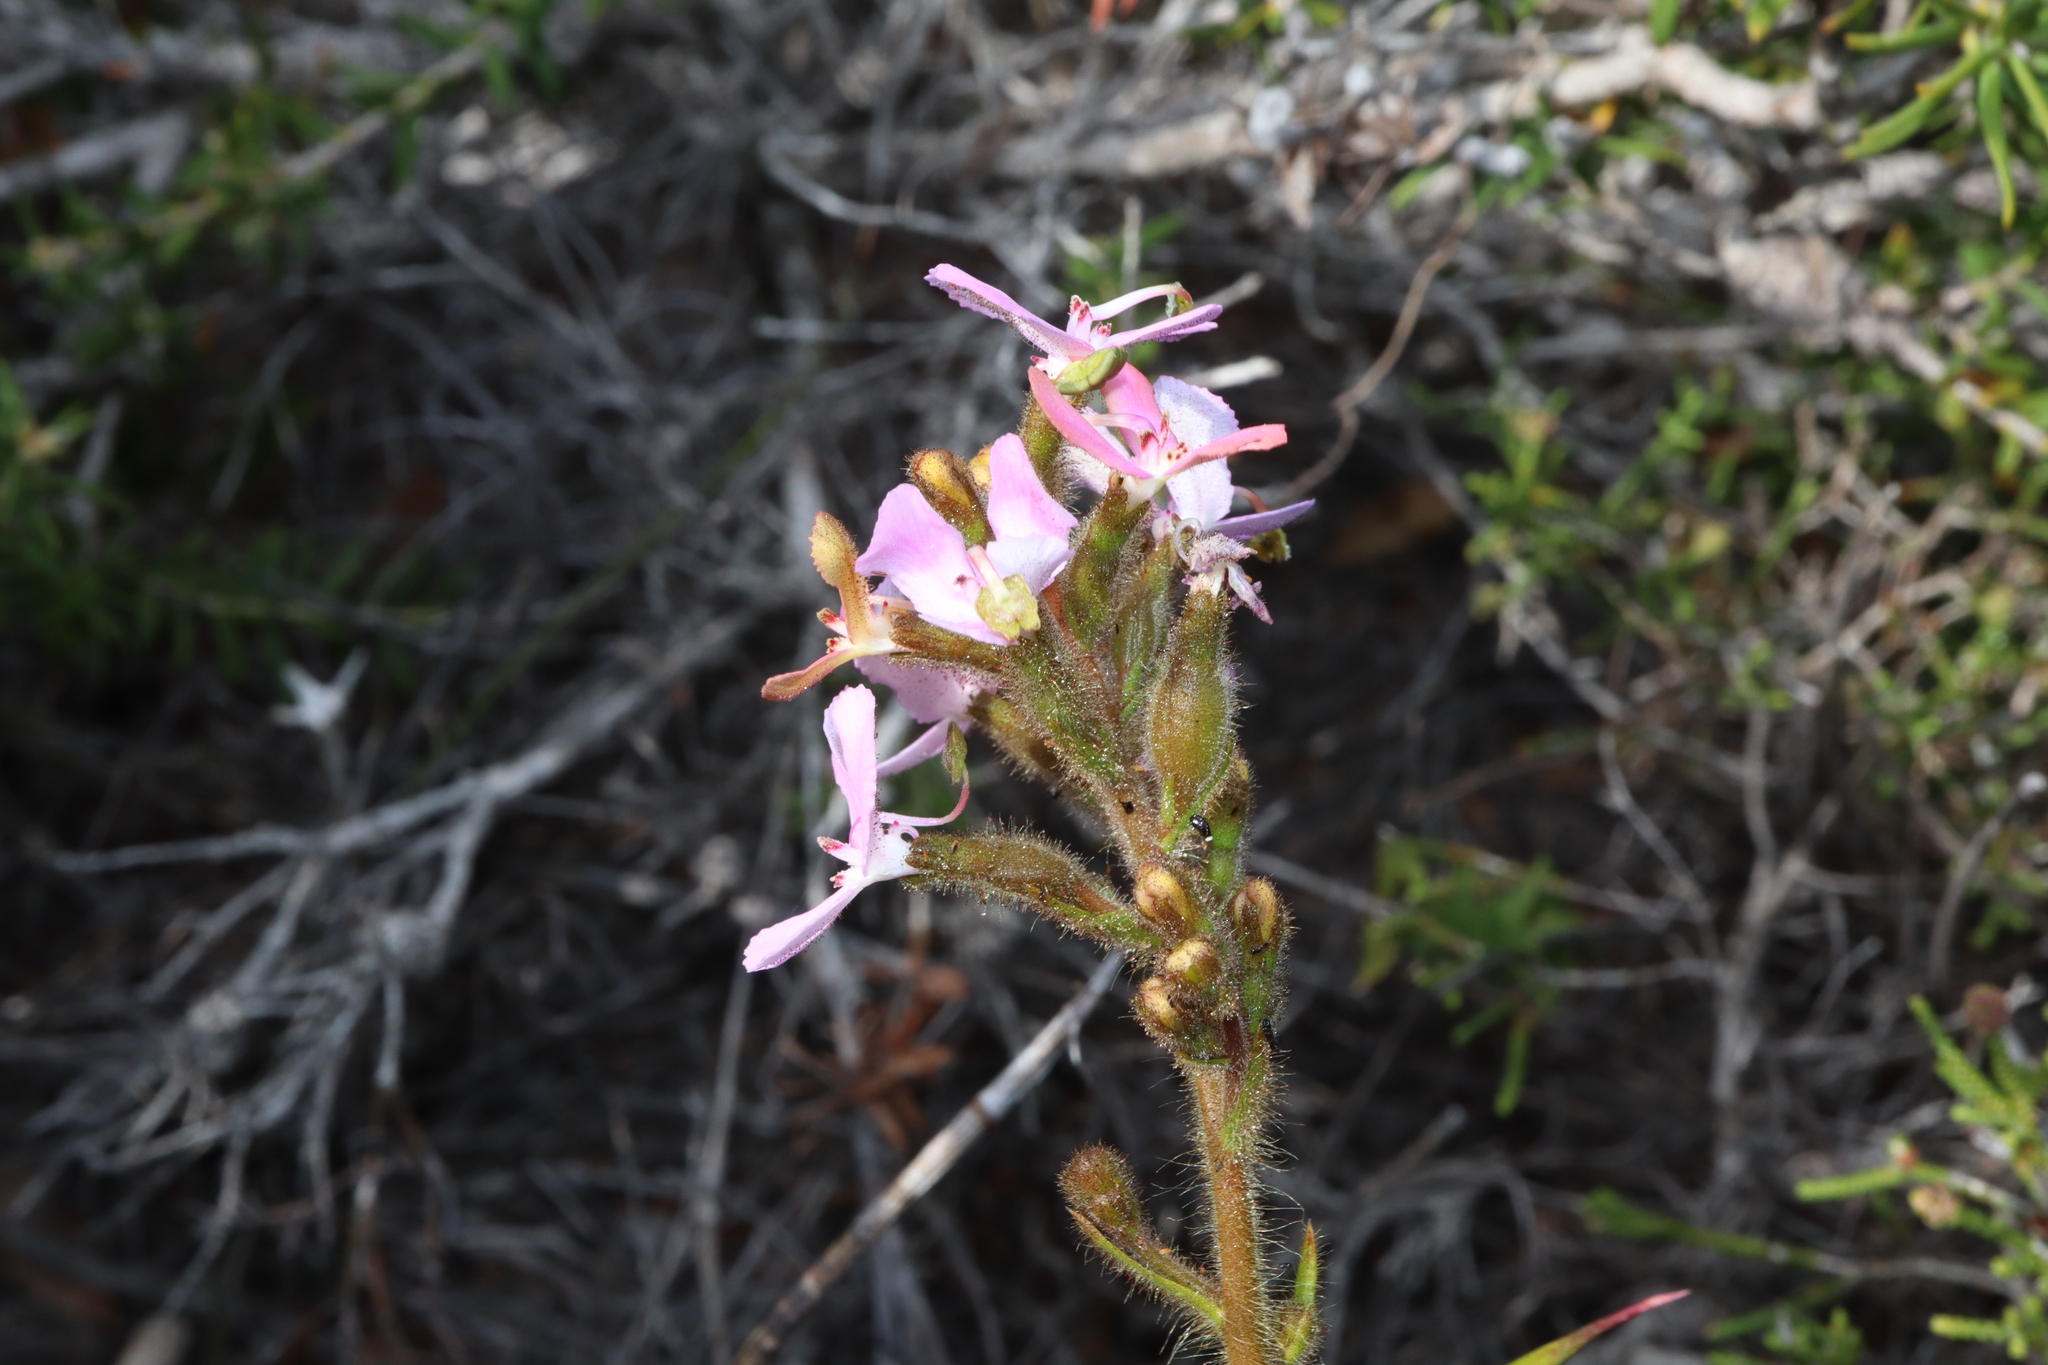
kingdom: Plantae
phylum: Tracheophyta
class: Magnoliopsida
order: Asterales
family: Stylidiaceae
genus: Stylidium
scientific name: Stylidium pilosum
